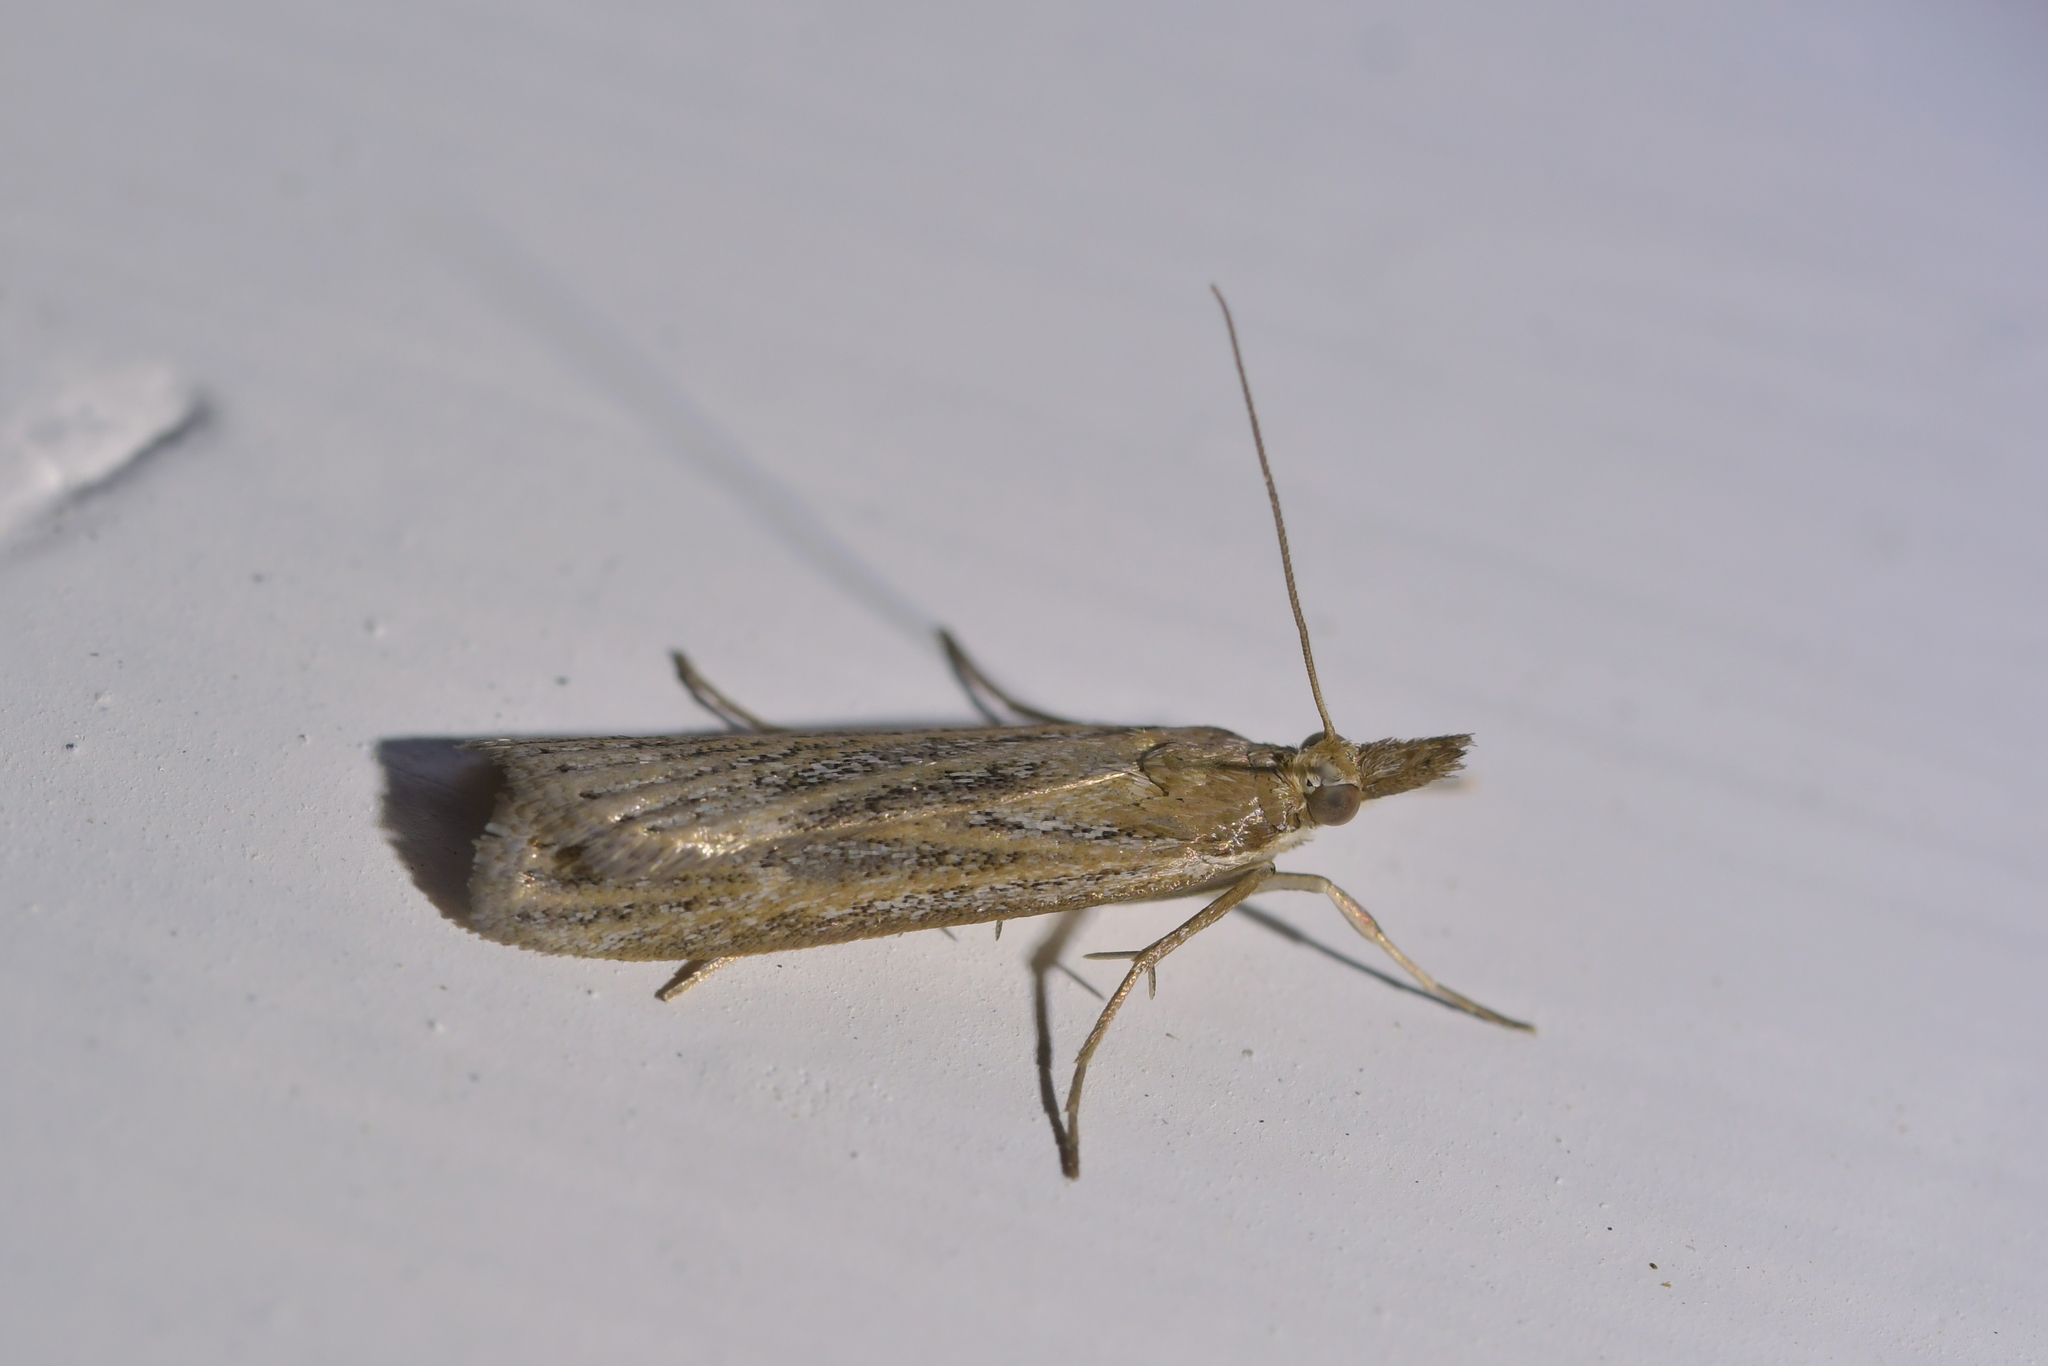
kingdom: Animalia
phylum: Arthropoda
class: Insecta
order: Lepidoptera
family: Crambidae
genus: Eudonia
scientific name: Eudonia sabulosella
